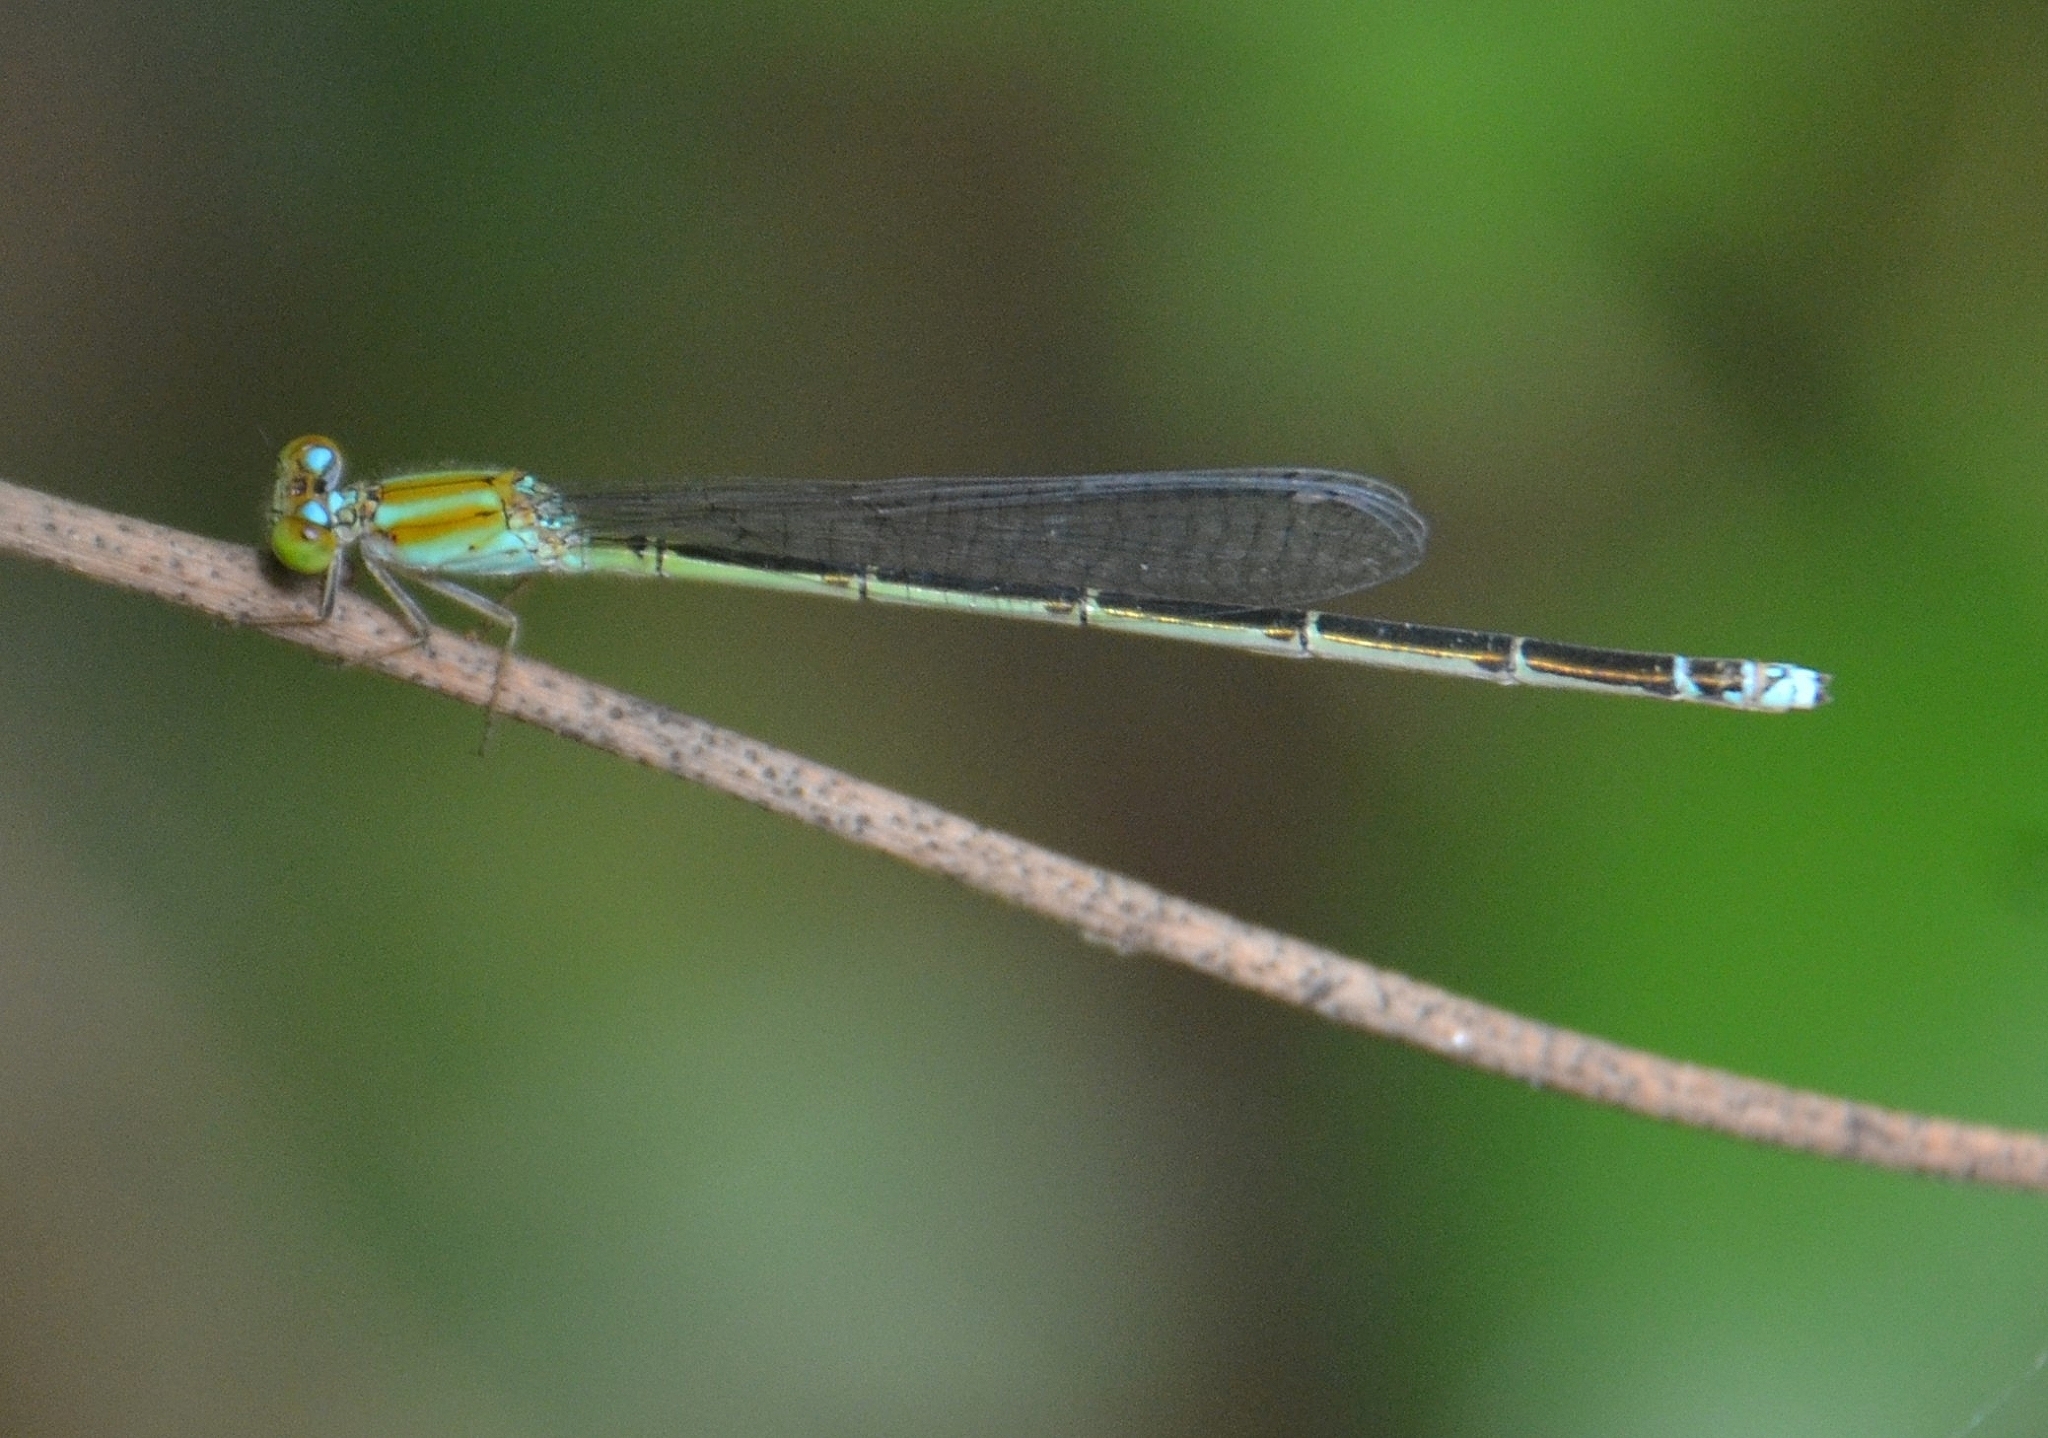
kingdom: Animalia
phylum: Arthropoda
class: Insecta
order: Odonata
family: Coenagrionidae
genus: Pseudagrion
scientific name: Pseudagrion microcephalum
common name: Blue riverdamsel
